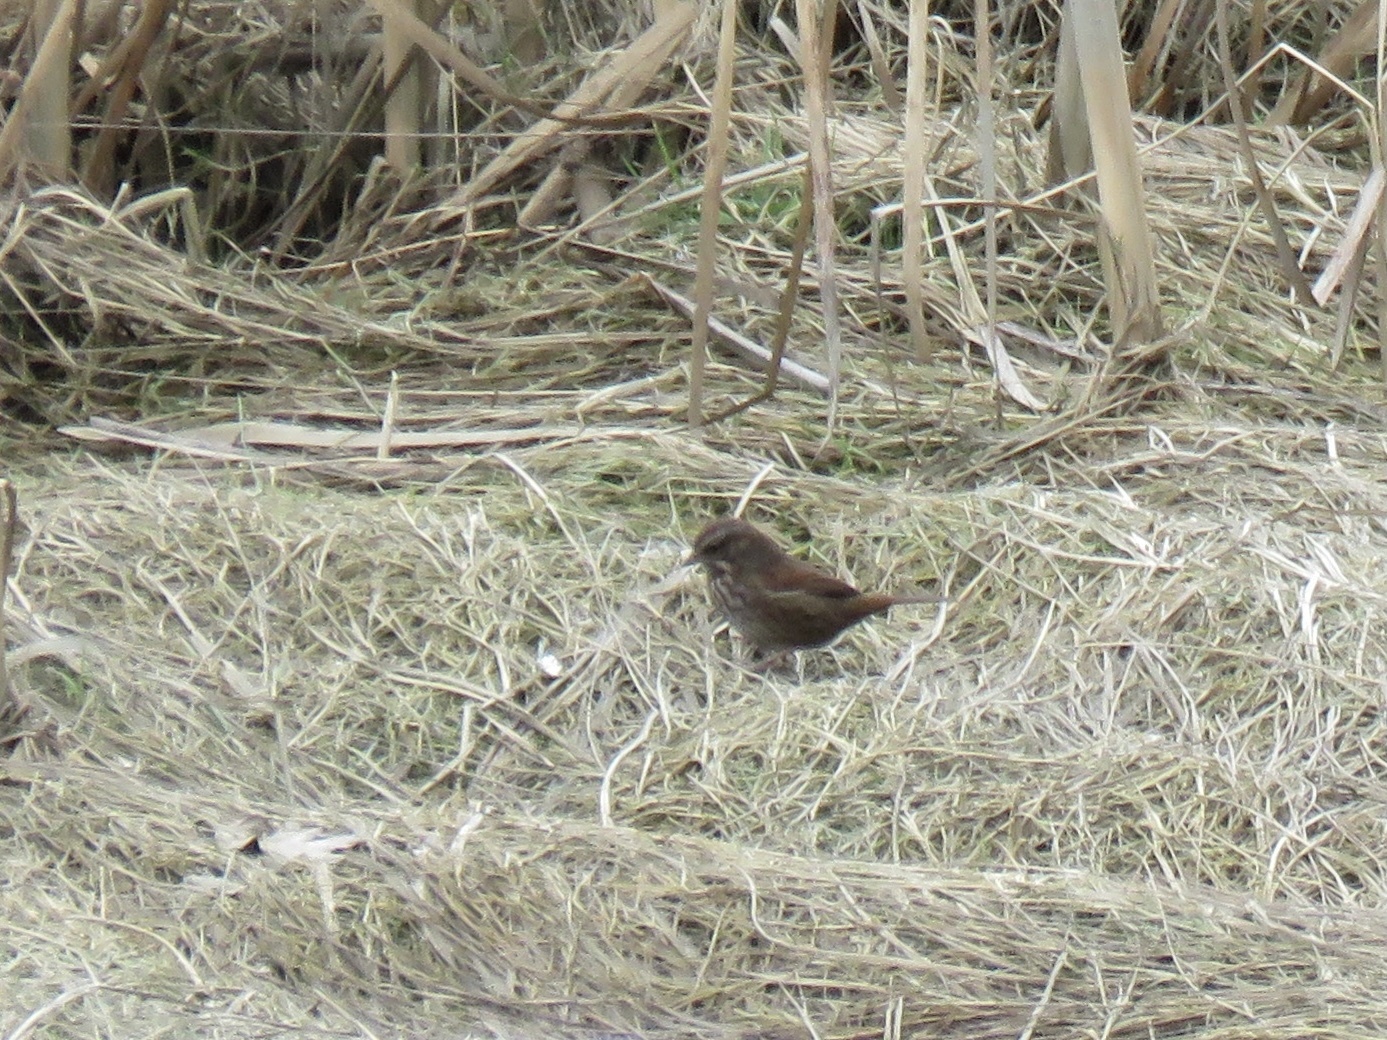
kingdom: Animalia
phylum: Chordata
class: Aves
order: Passeriformes
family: Passerellidae
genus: Melospiza
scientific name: Melospiza melodia
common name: Song sparrow
